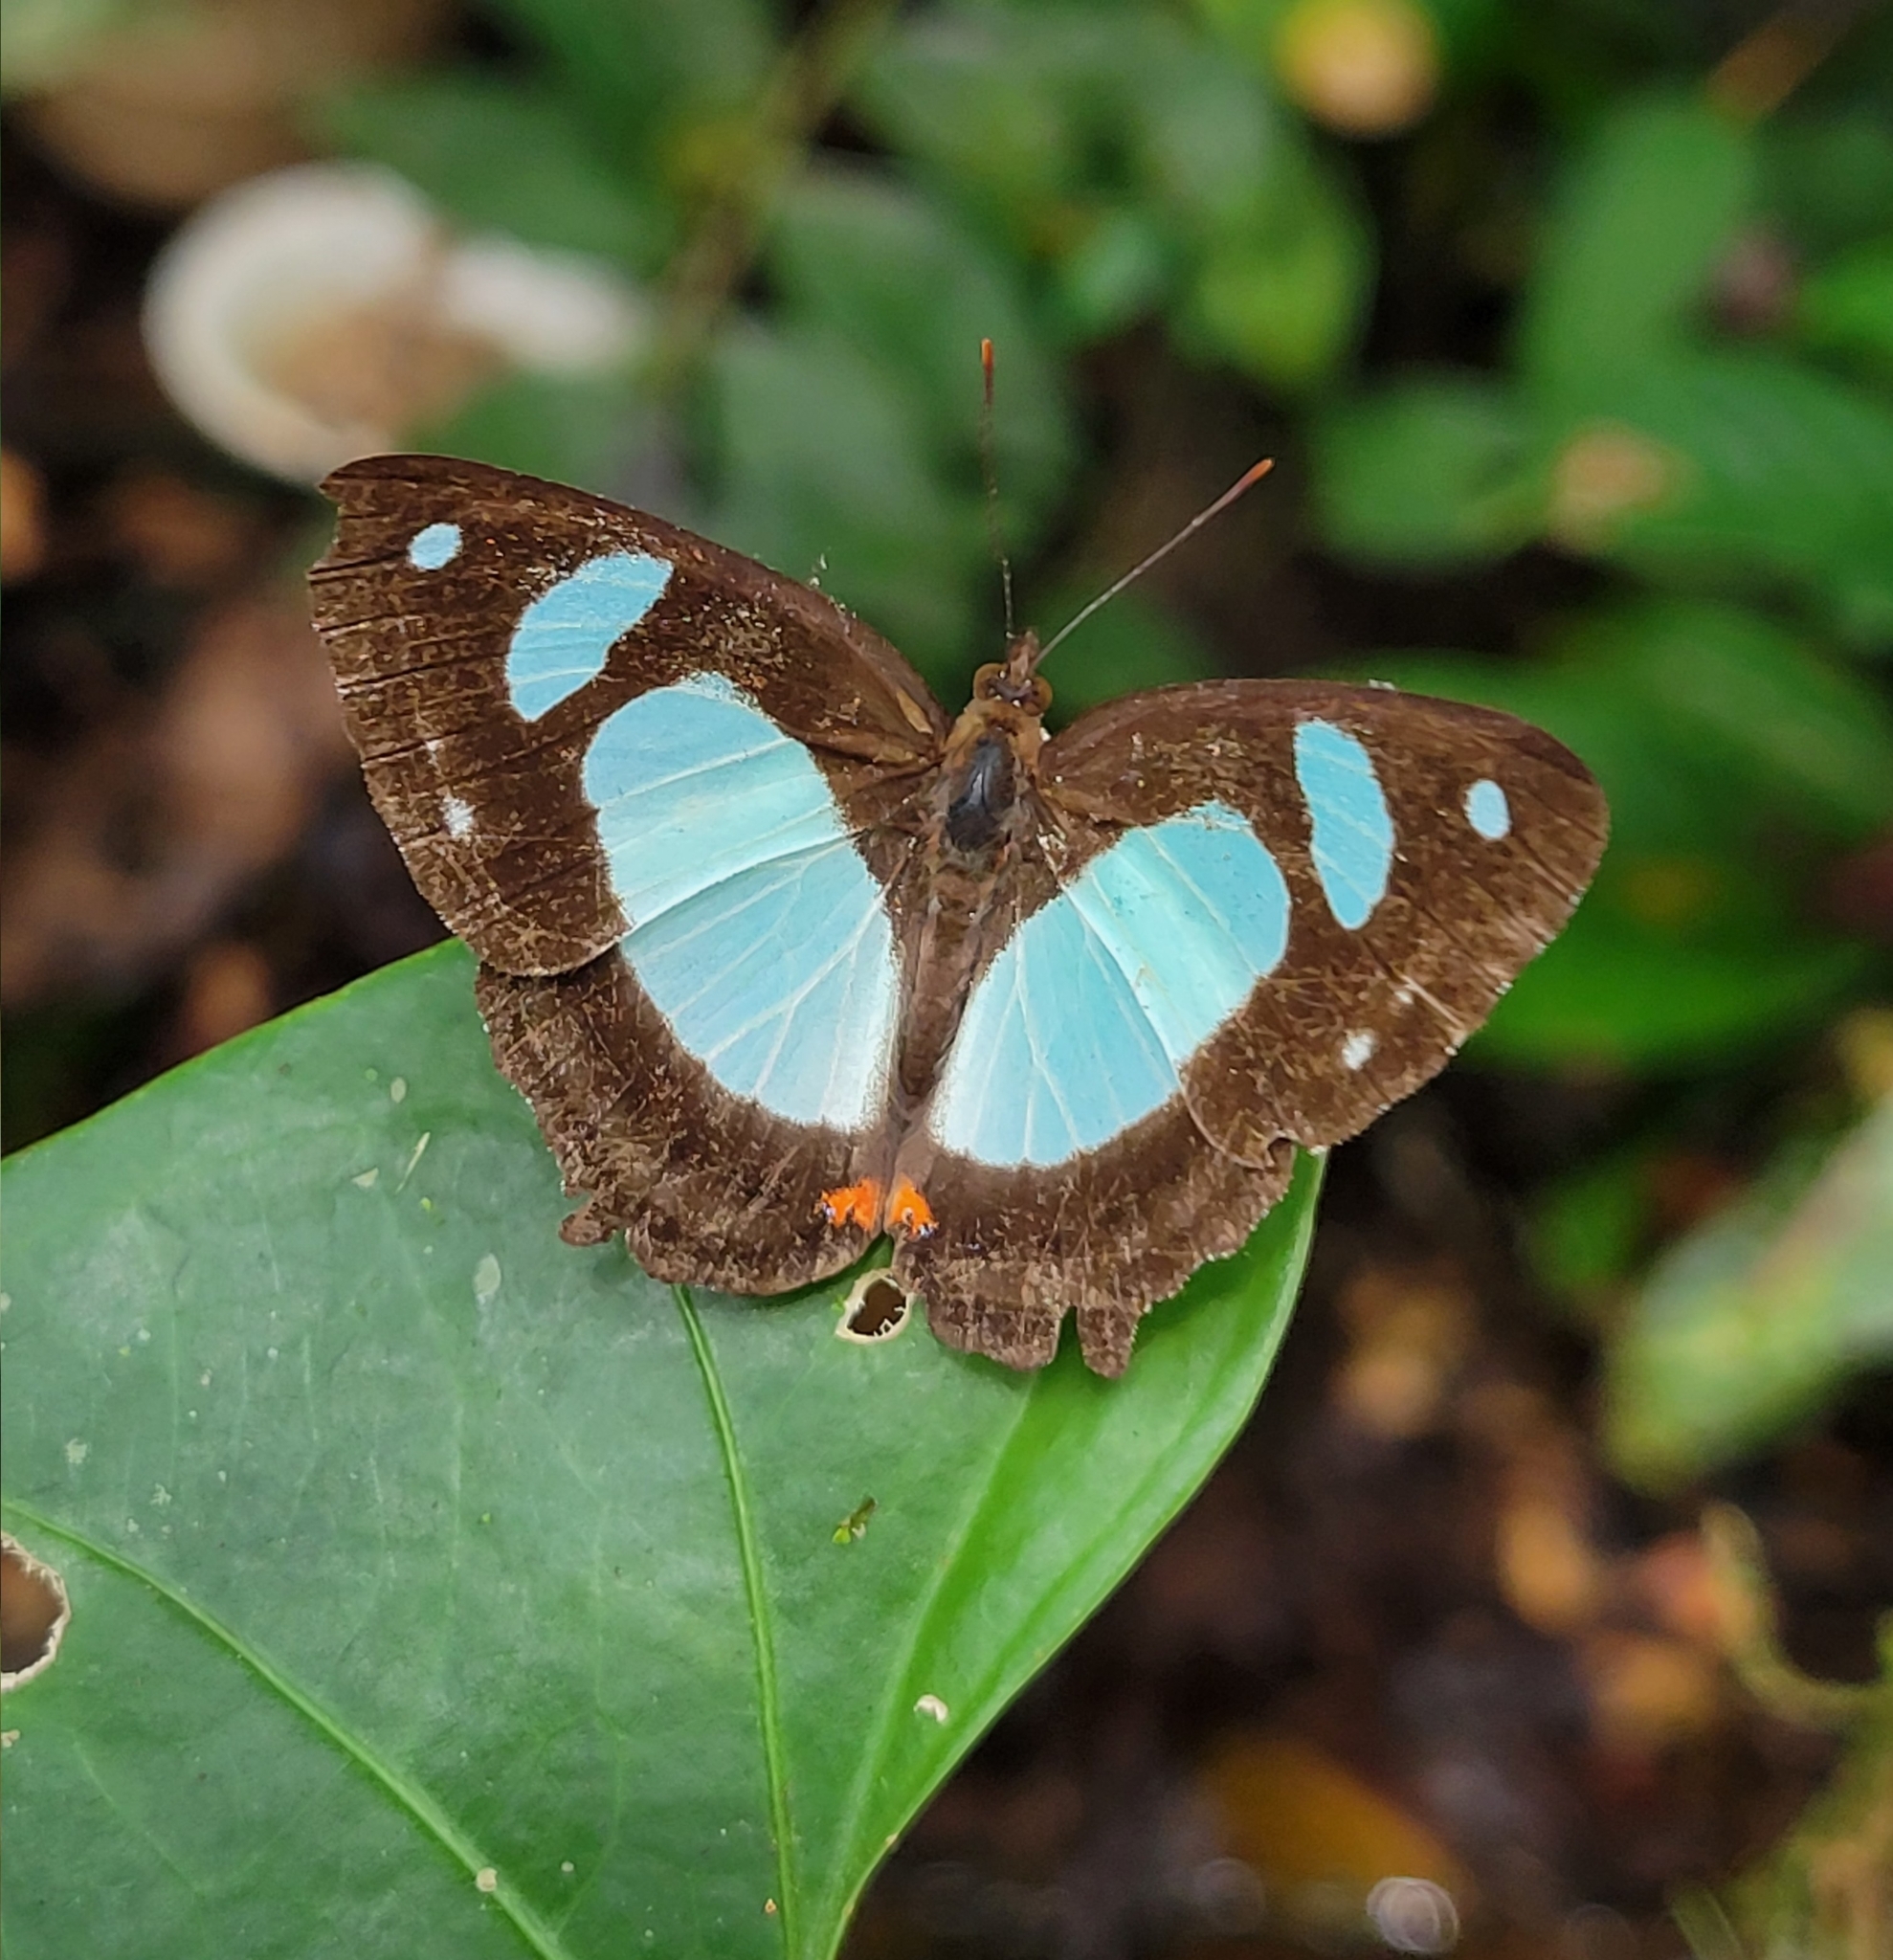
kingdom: Animalia
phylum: Arthropoda
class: Insecta
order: Lepidoptera
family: Nymphalidae
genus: Pyrrhogyra
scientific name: Pyrrhogyra otolais
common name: Double-banded banner
